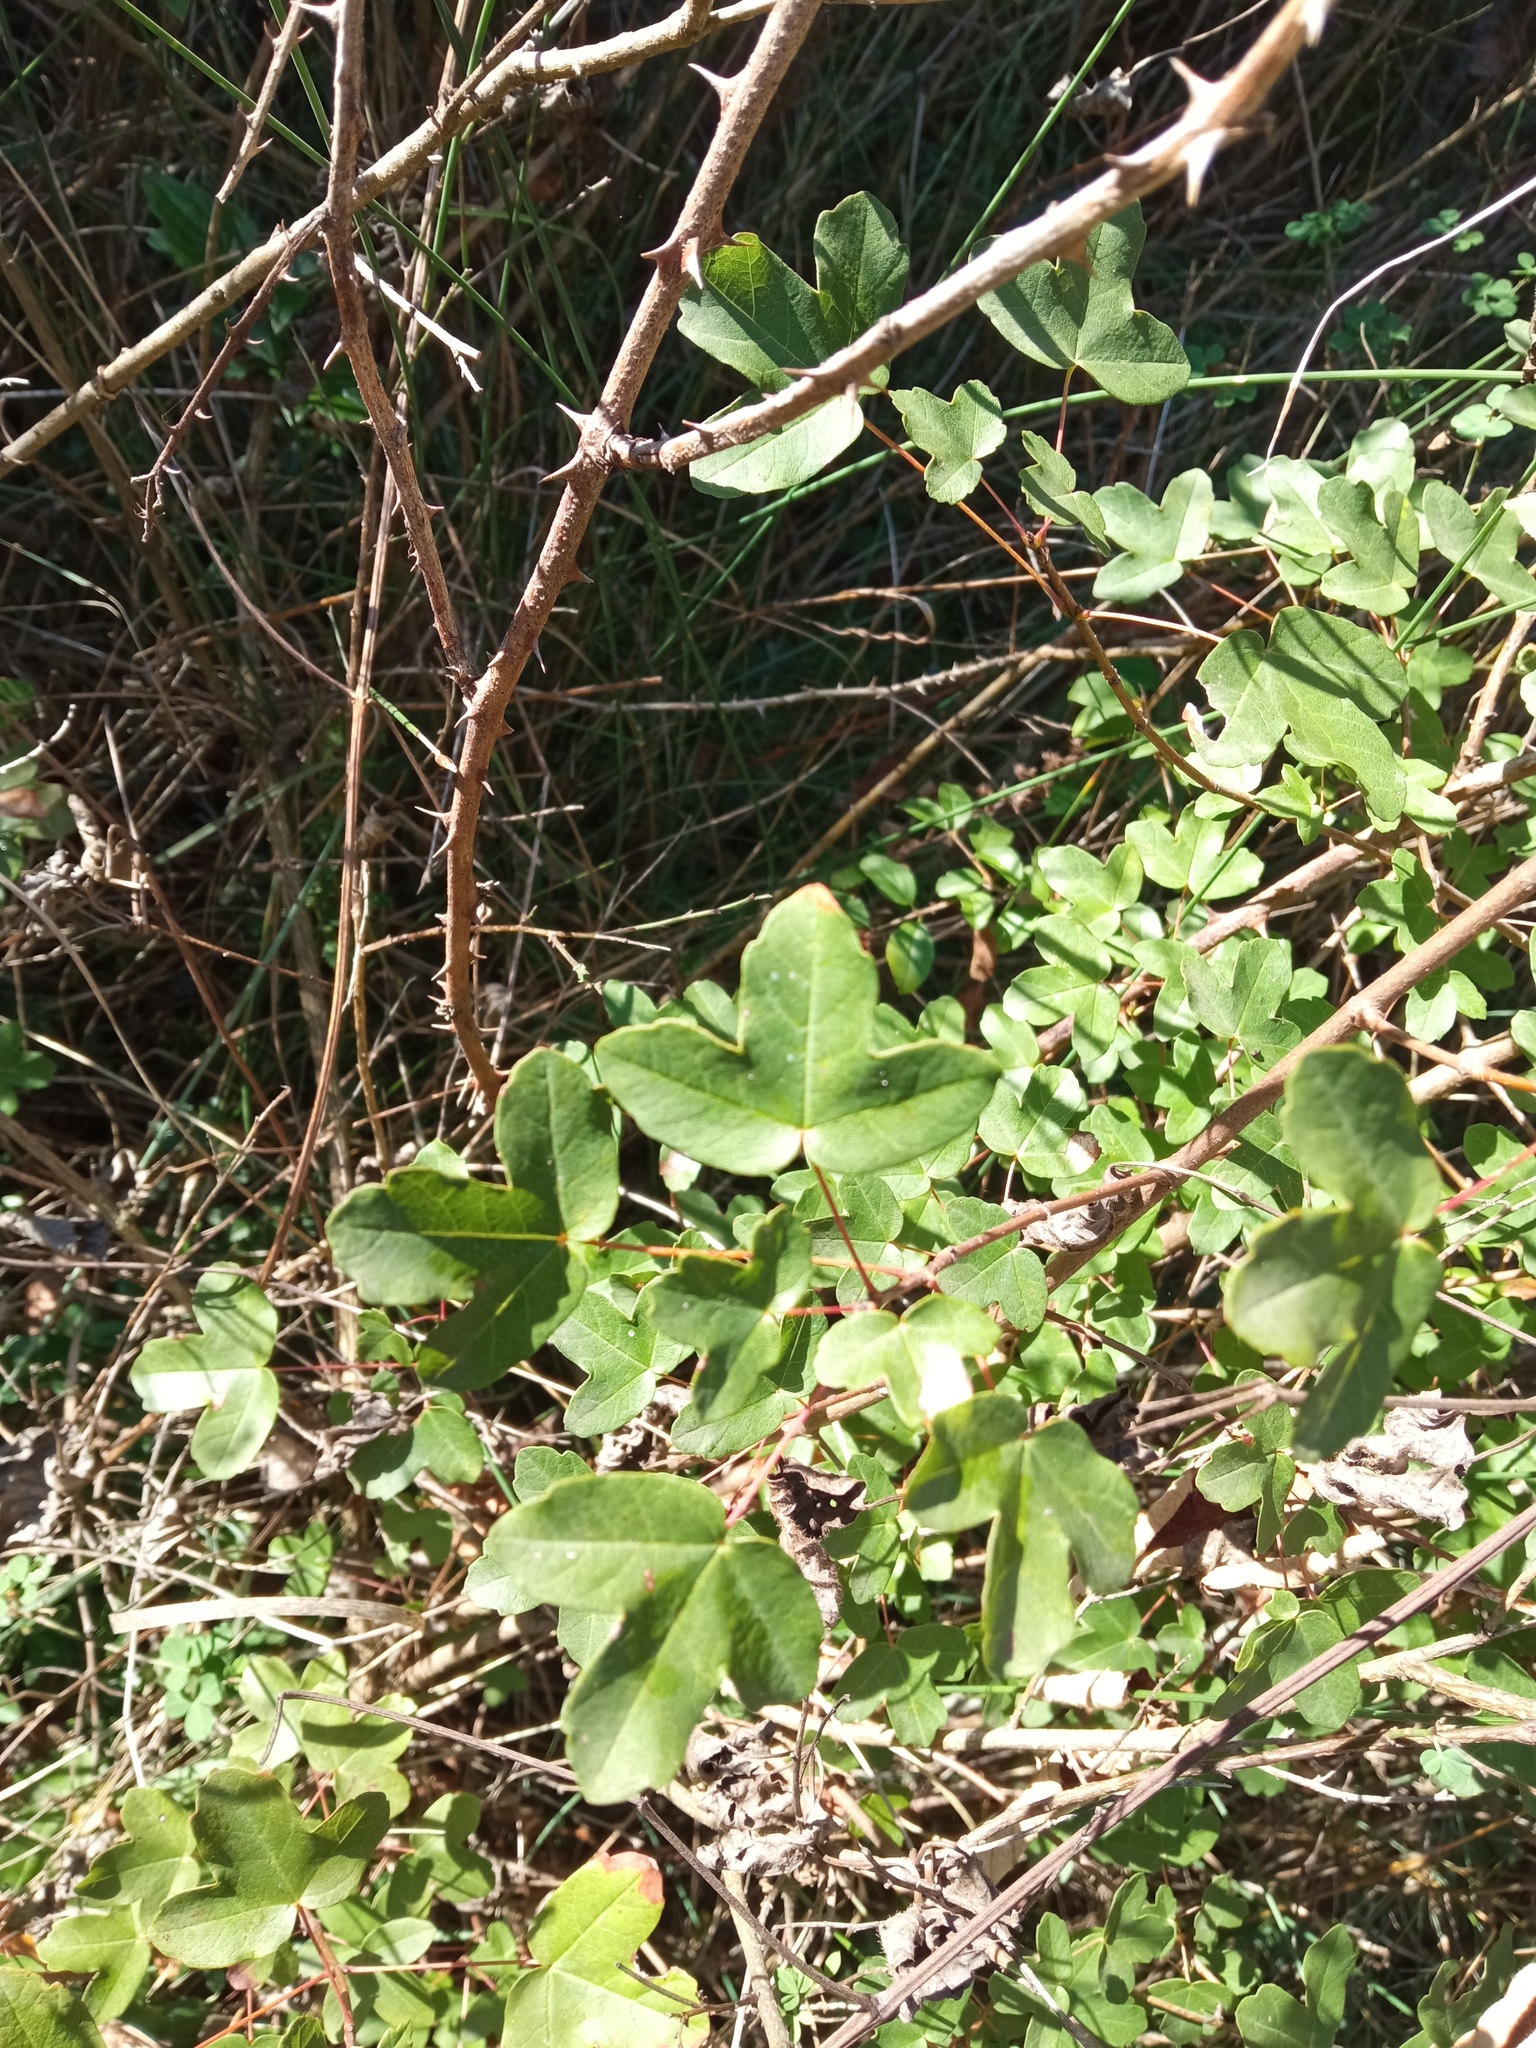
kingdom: Plantae
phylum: Tracheophyta
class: Magnoliopsida
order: Sapindales
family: Sapindaceae
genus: Acer
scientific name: Acer monspessulanum
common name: Montpellier maple
